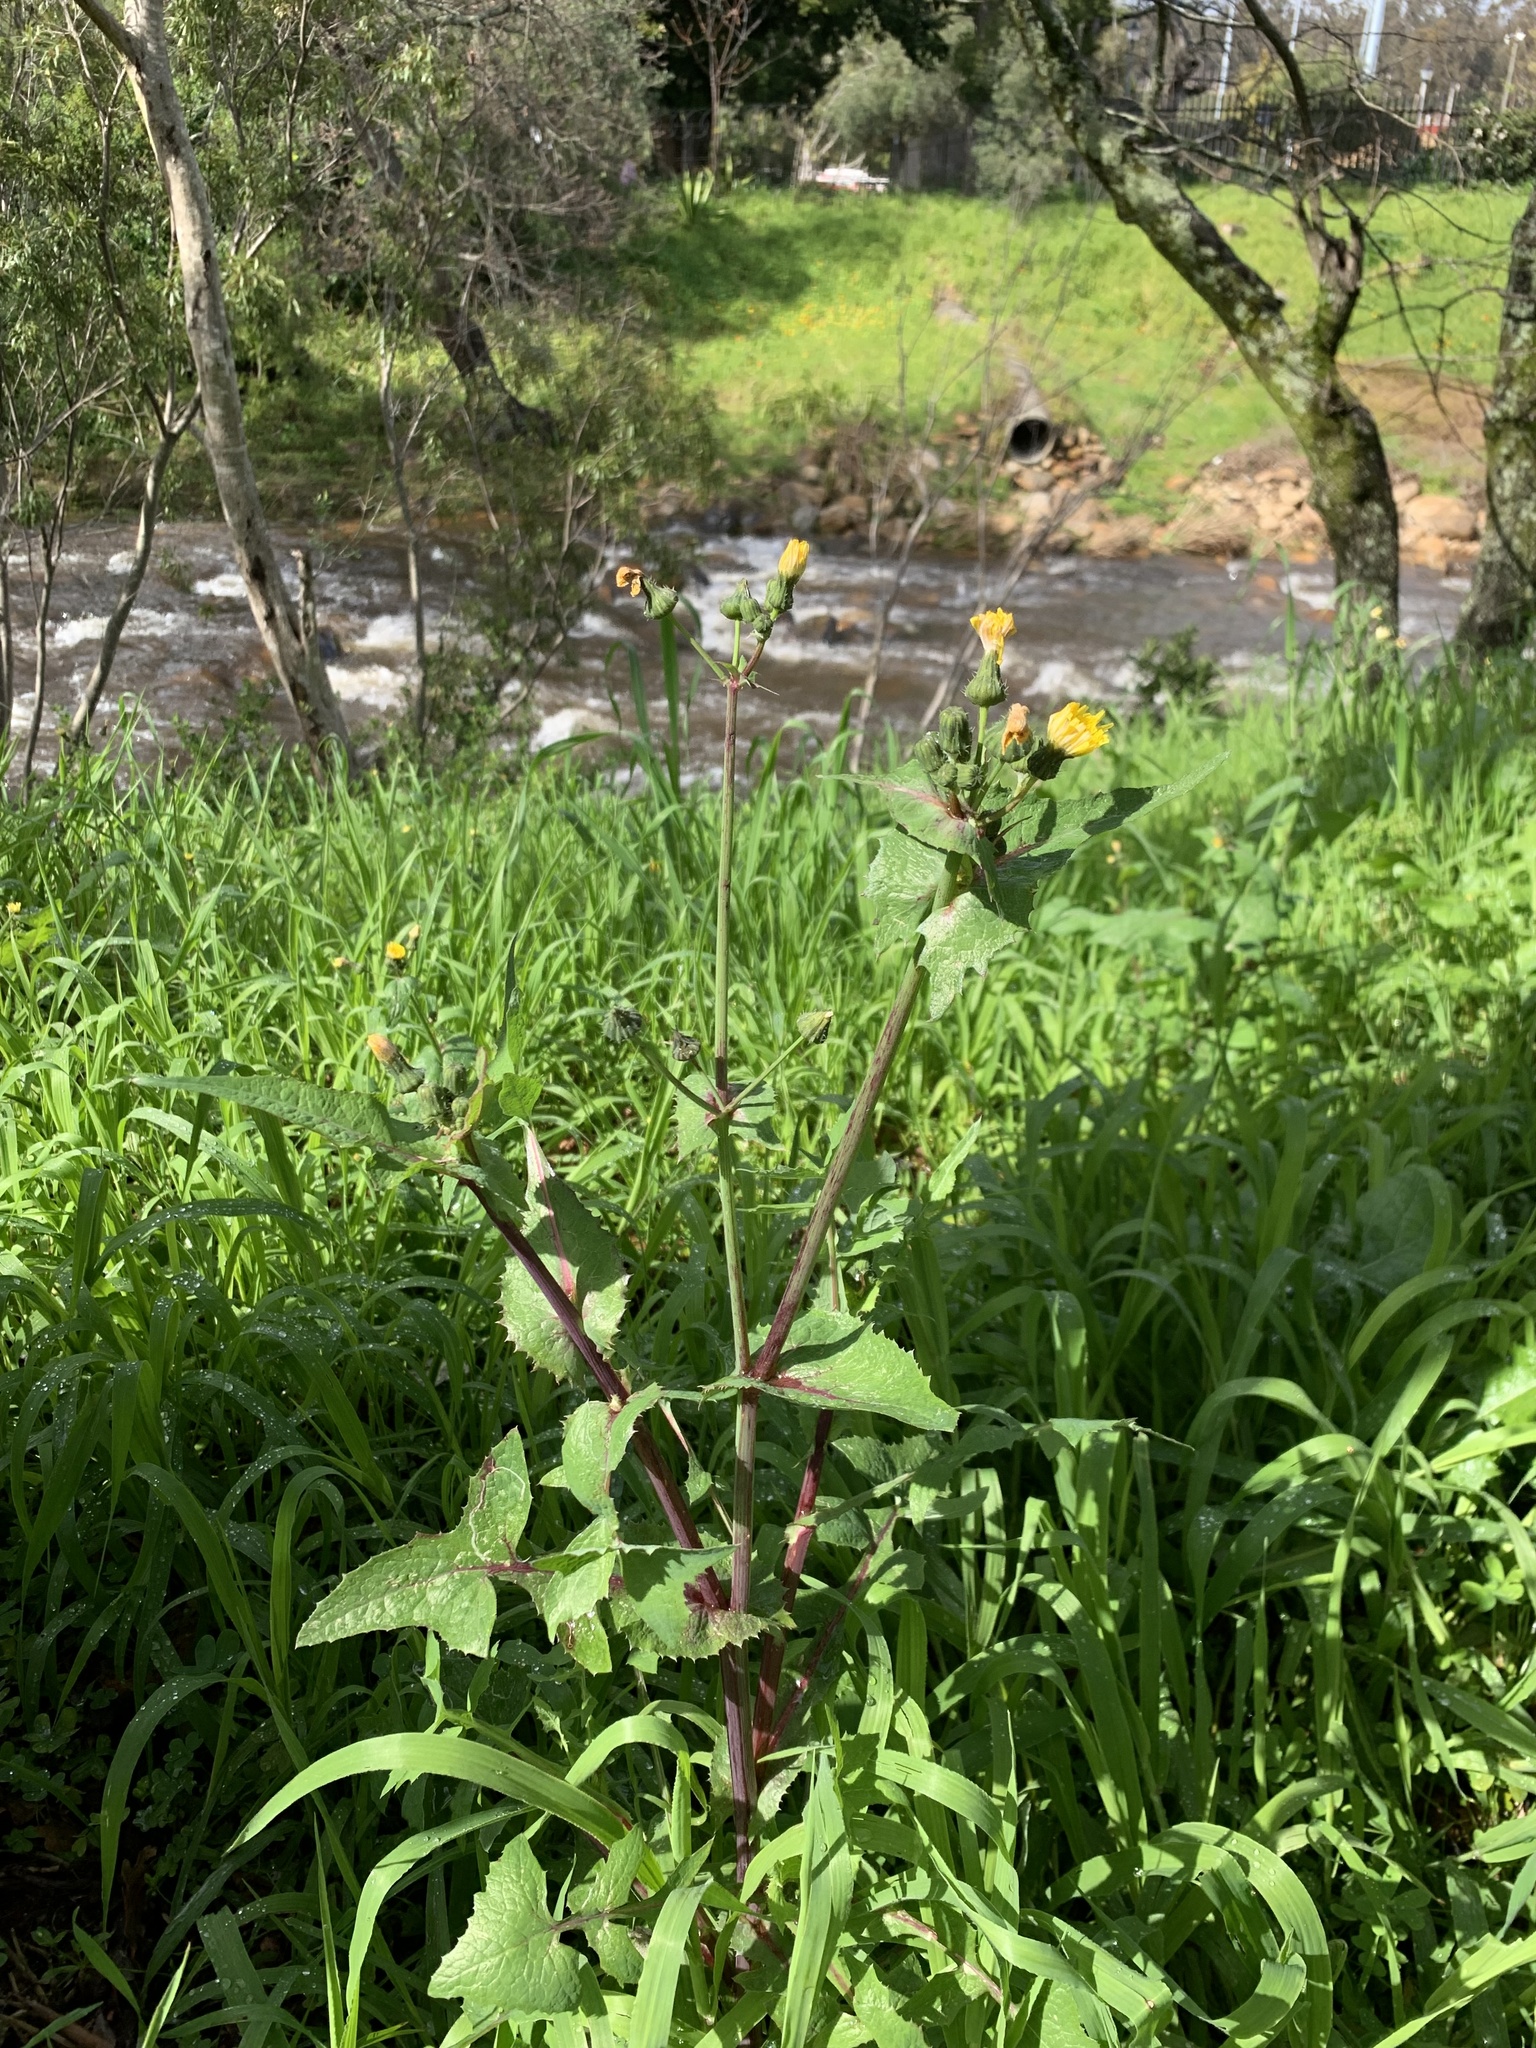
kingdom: Plantae
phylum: Tracheophyta
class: Magnoliopsida
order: Asterales
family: Asteraceae
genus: Sonchus
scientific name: Sonchus oleraceus
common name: Common sowthistle
